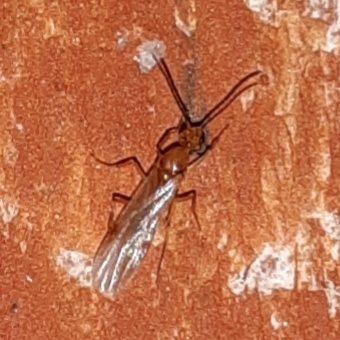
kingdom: Animalia
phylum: Arthropoda
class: Insecta
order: Hymenoptera
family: Formicidae
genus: Pachycondyla
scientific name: Pachycondyla chinensis
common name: Asian needle ant
